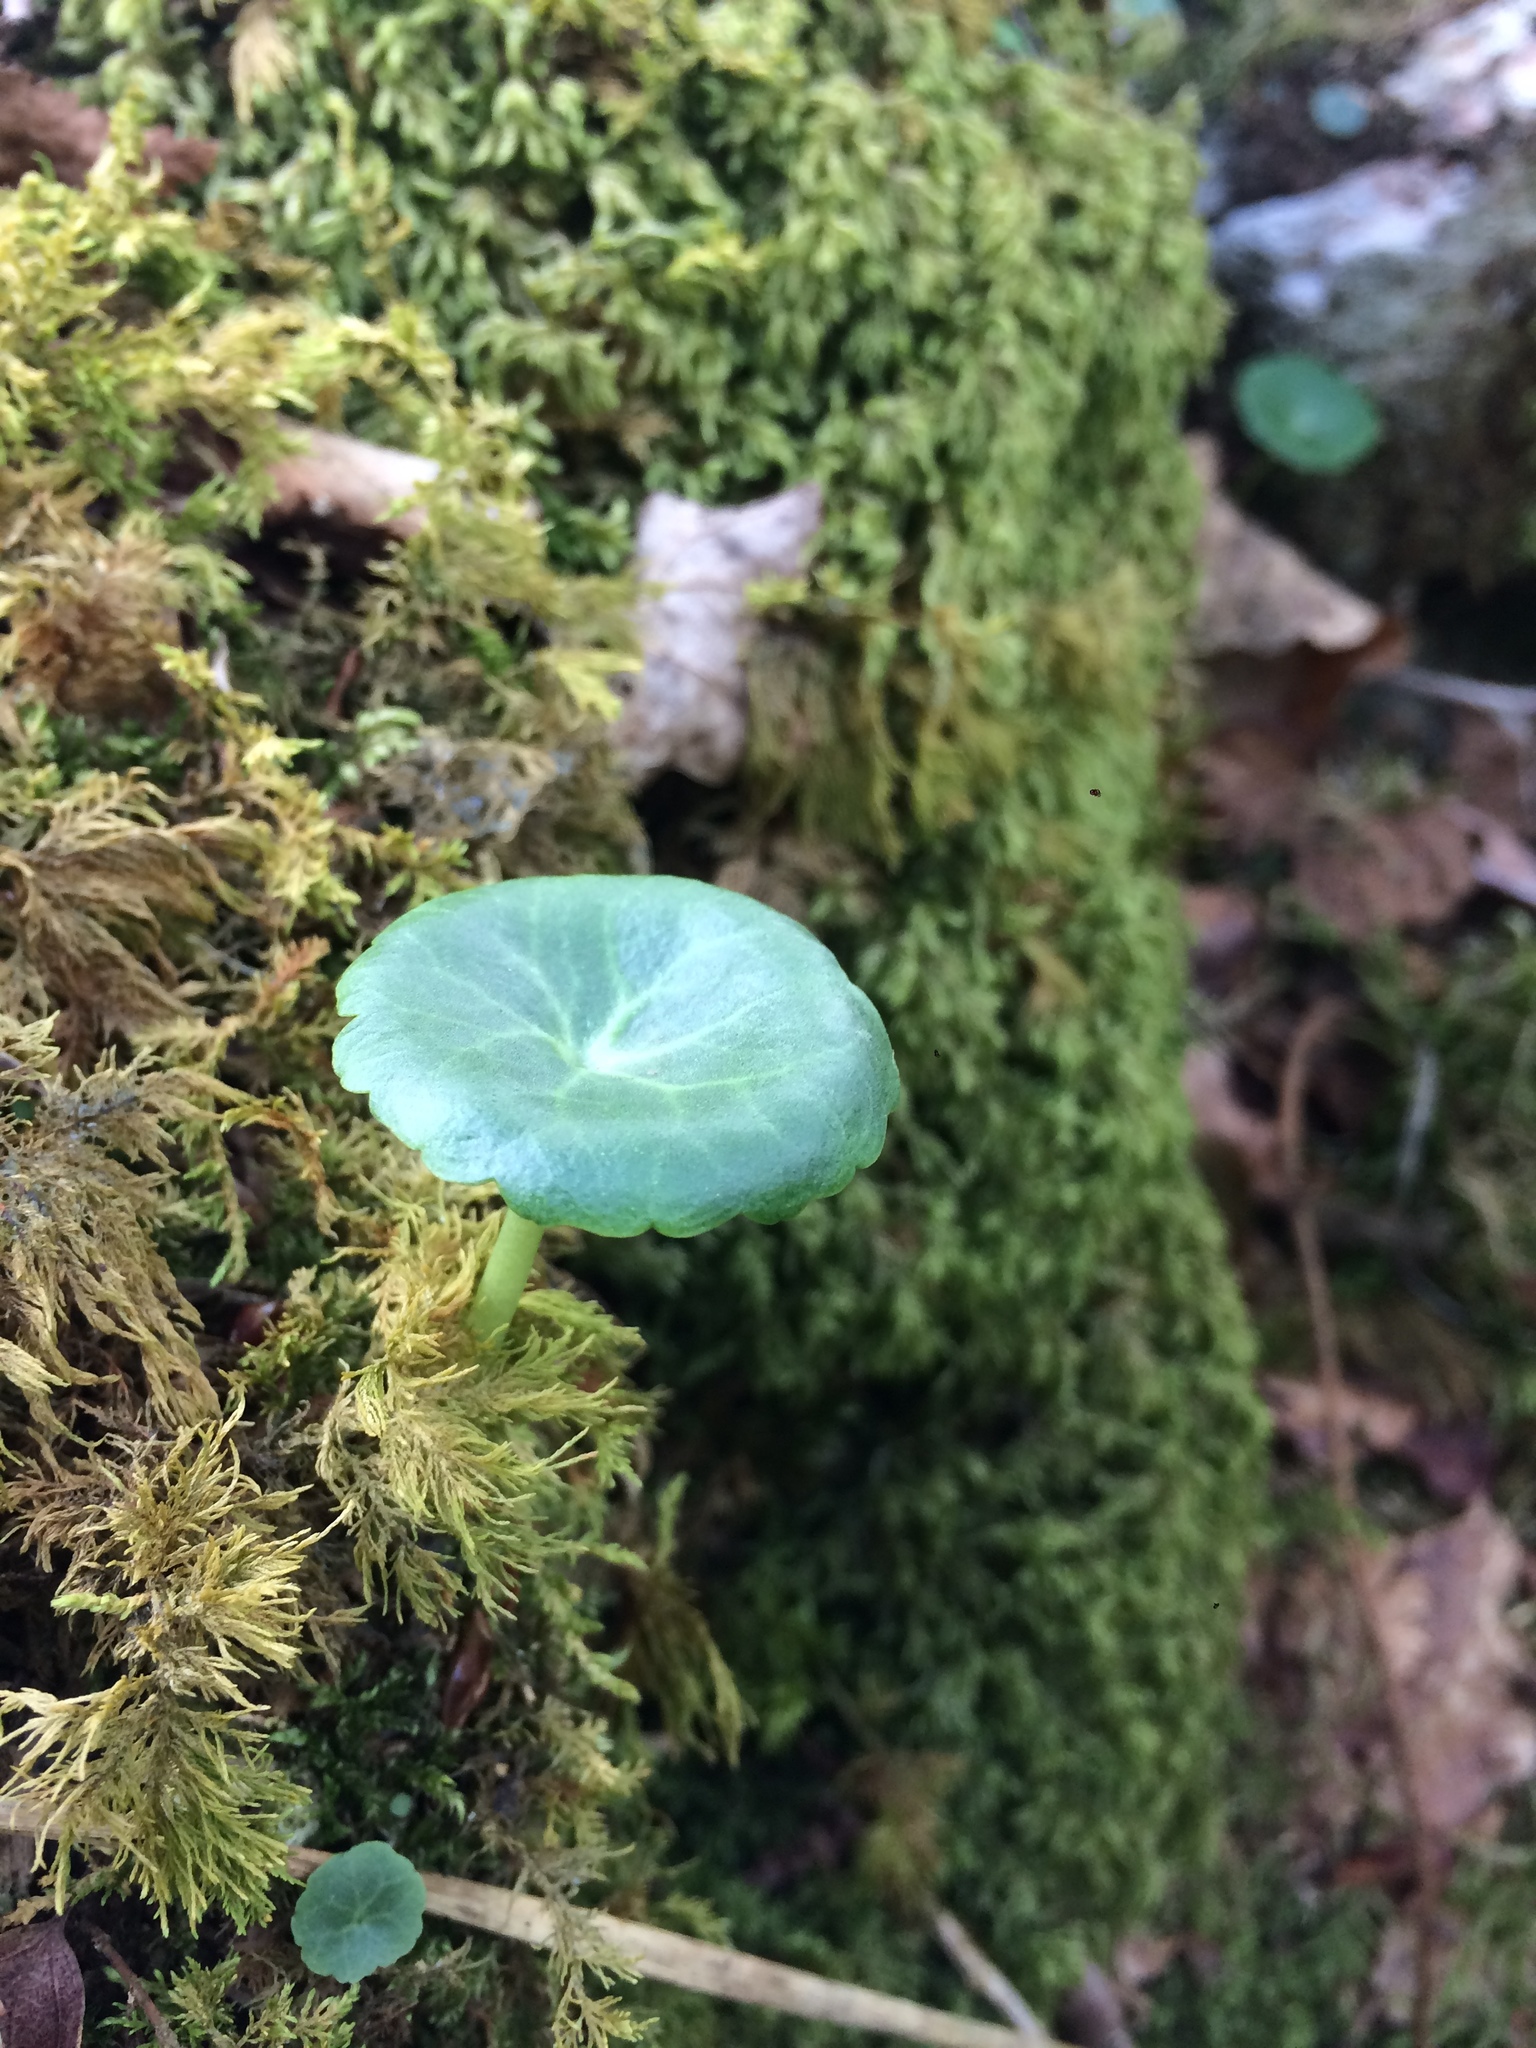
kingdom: Plantae
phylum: Tracheophyta
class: Magnoliopsida
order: Saxifragales
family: Crassulaceae
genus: Umbilicus
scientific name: Umbilicus rupestris
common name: Navelwort
